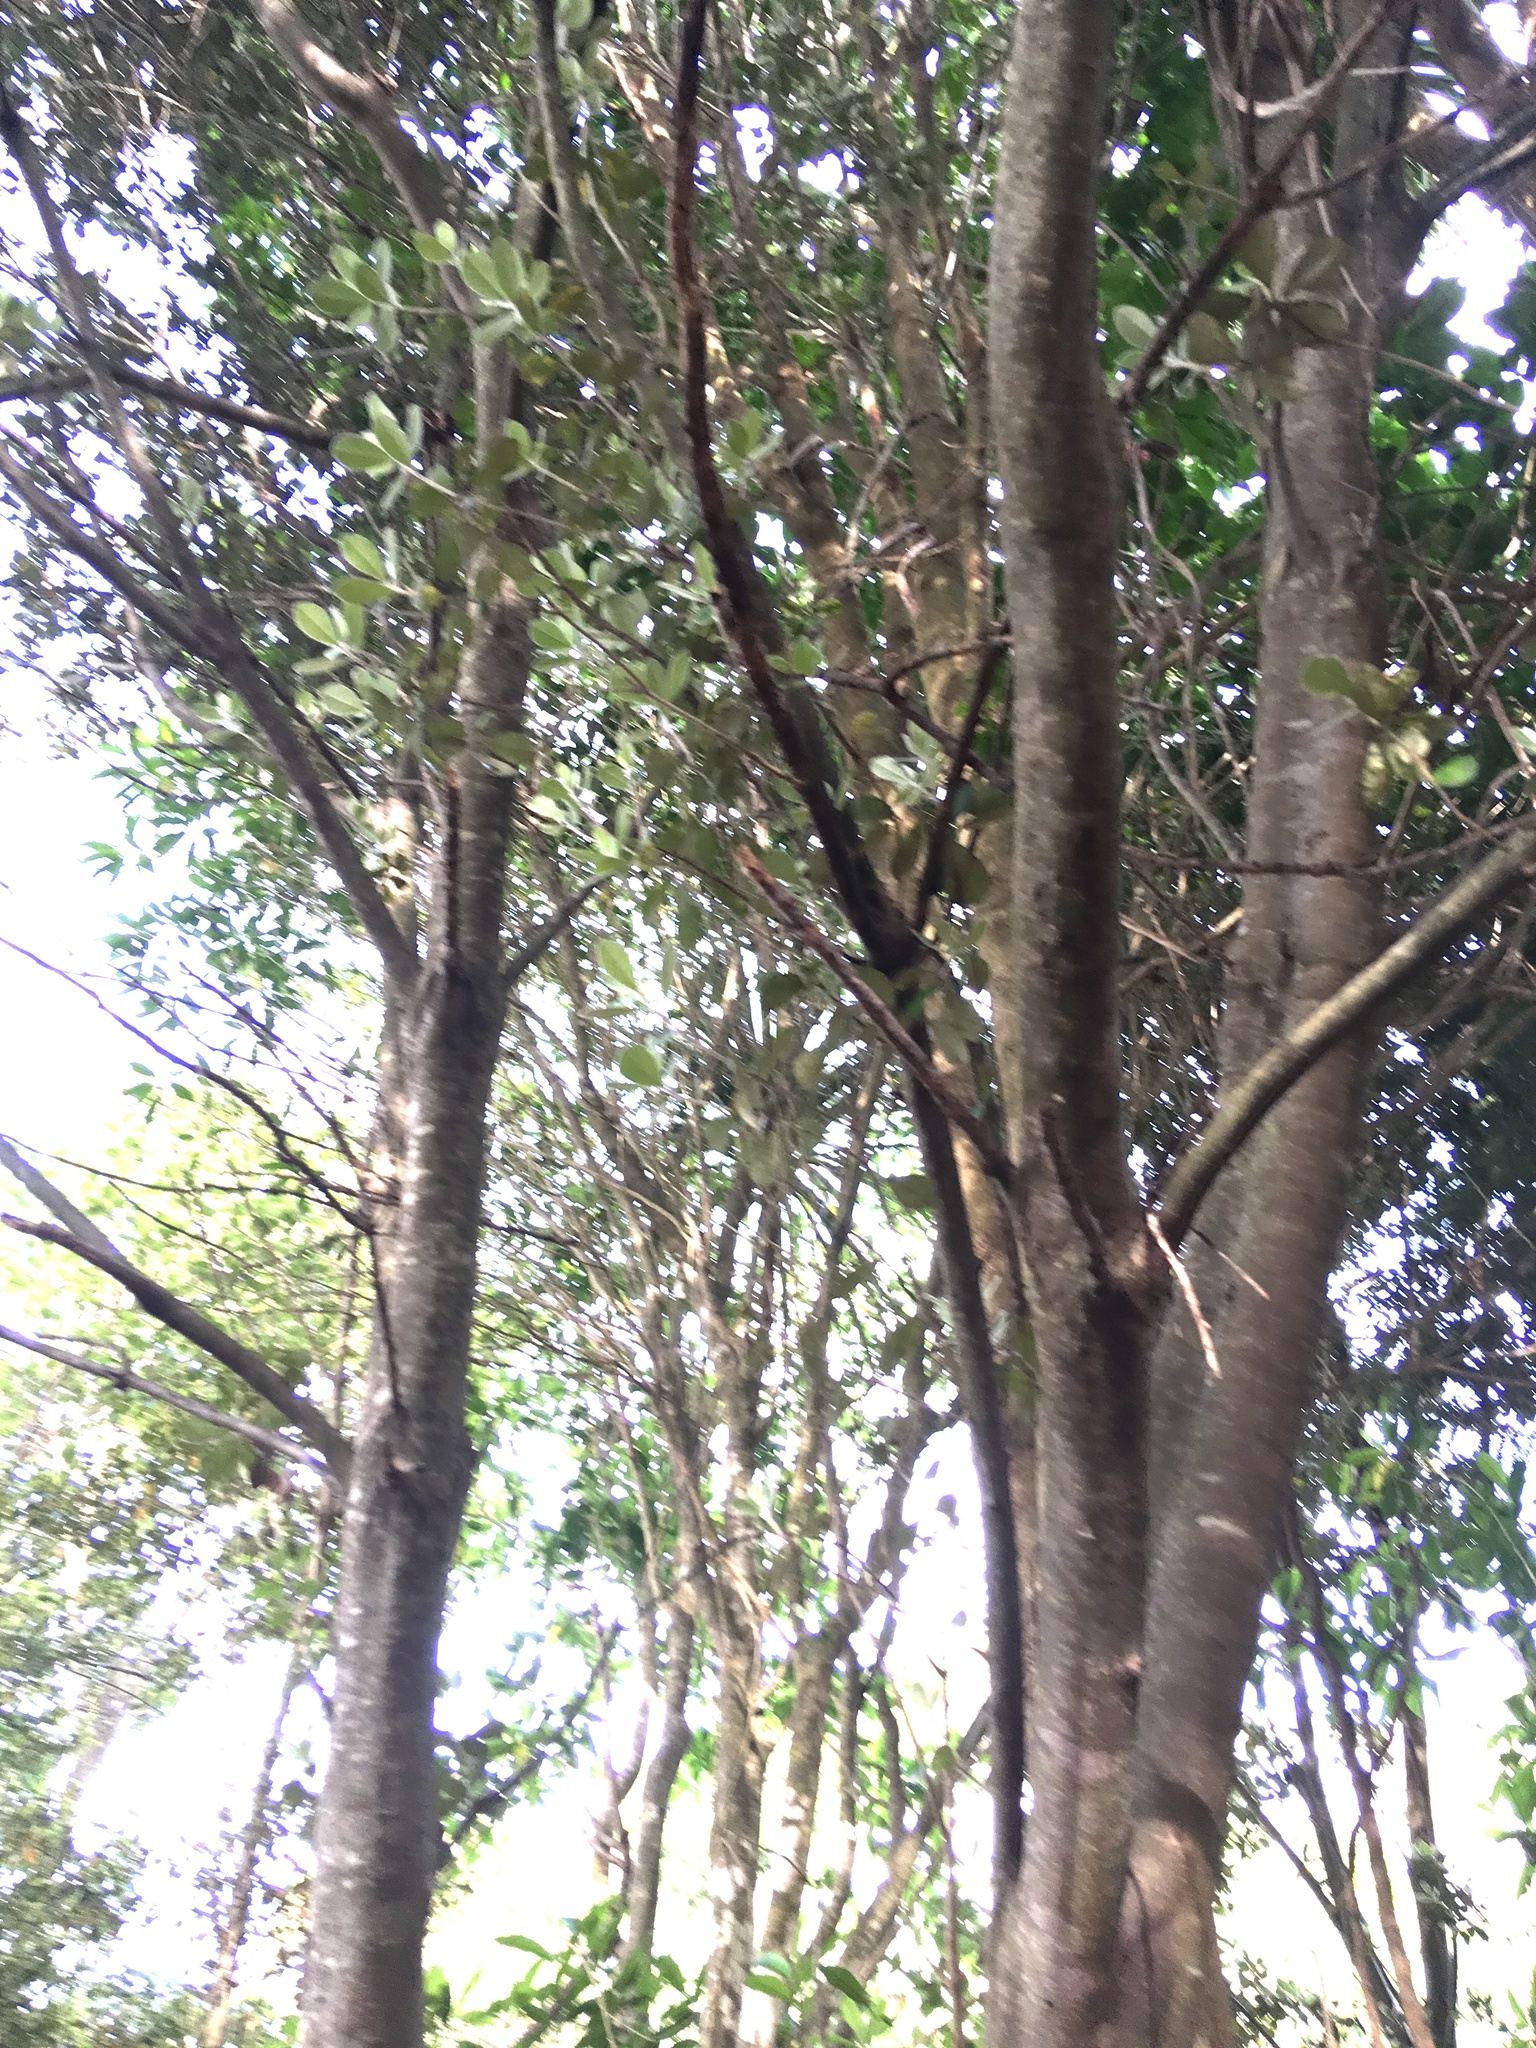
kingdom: Plantae
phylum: Tracheophyta
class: Magnoliopsida
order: Apiales
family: Pittosporaceae
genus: Pittosporum
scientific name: Pittosporum crassifolium
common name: Karo
